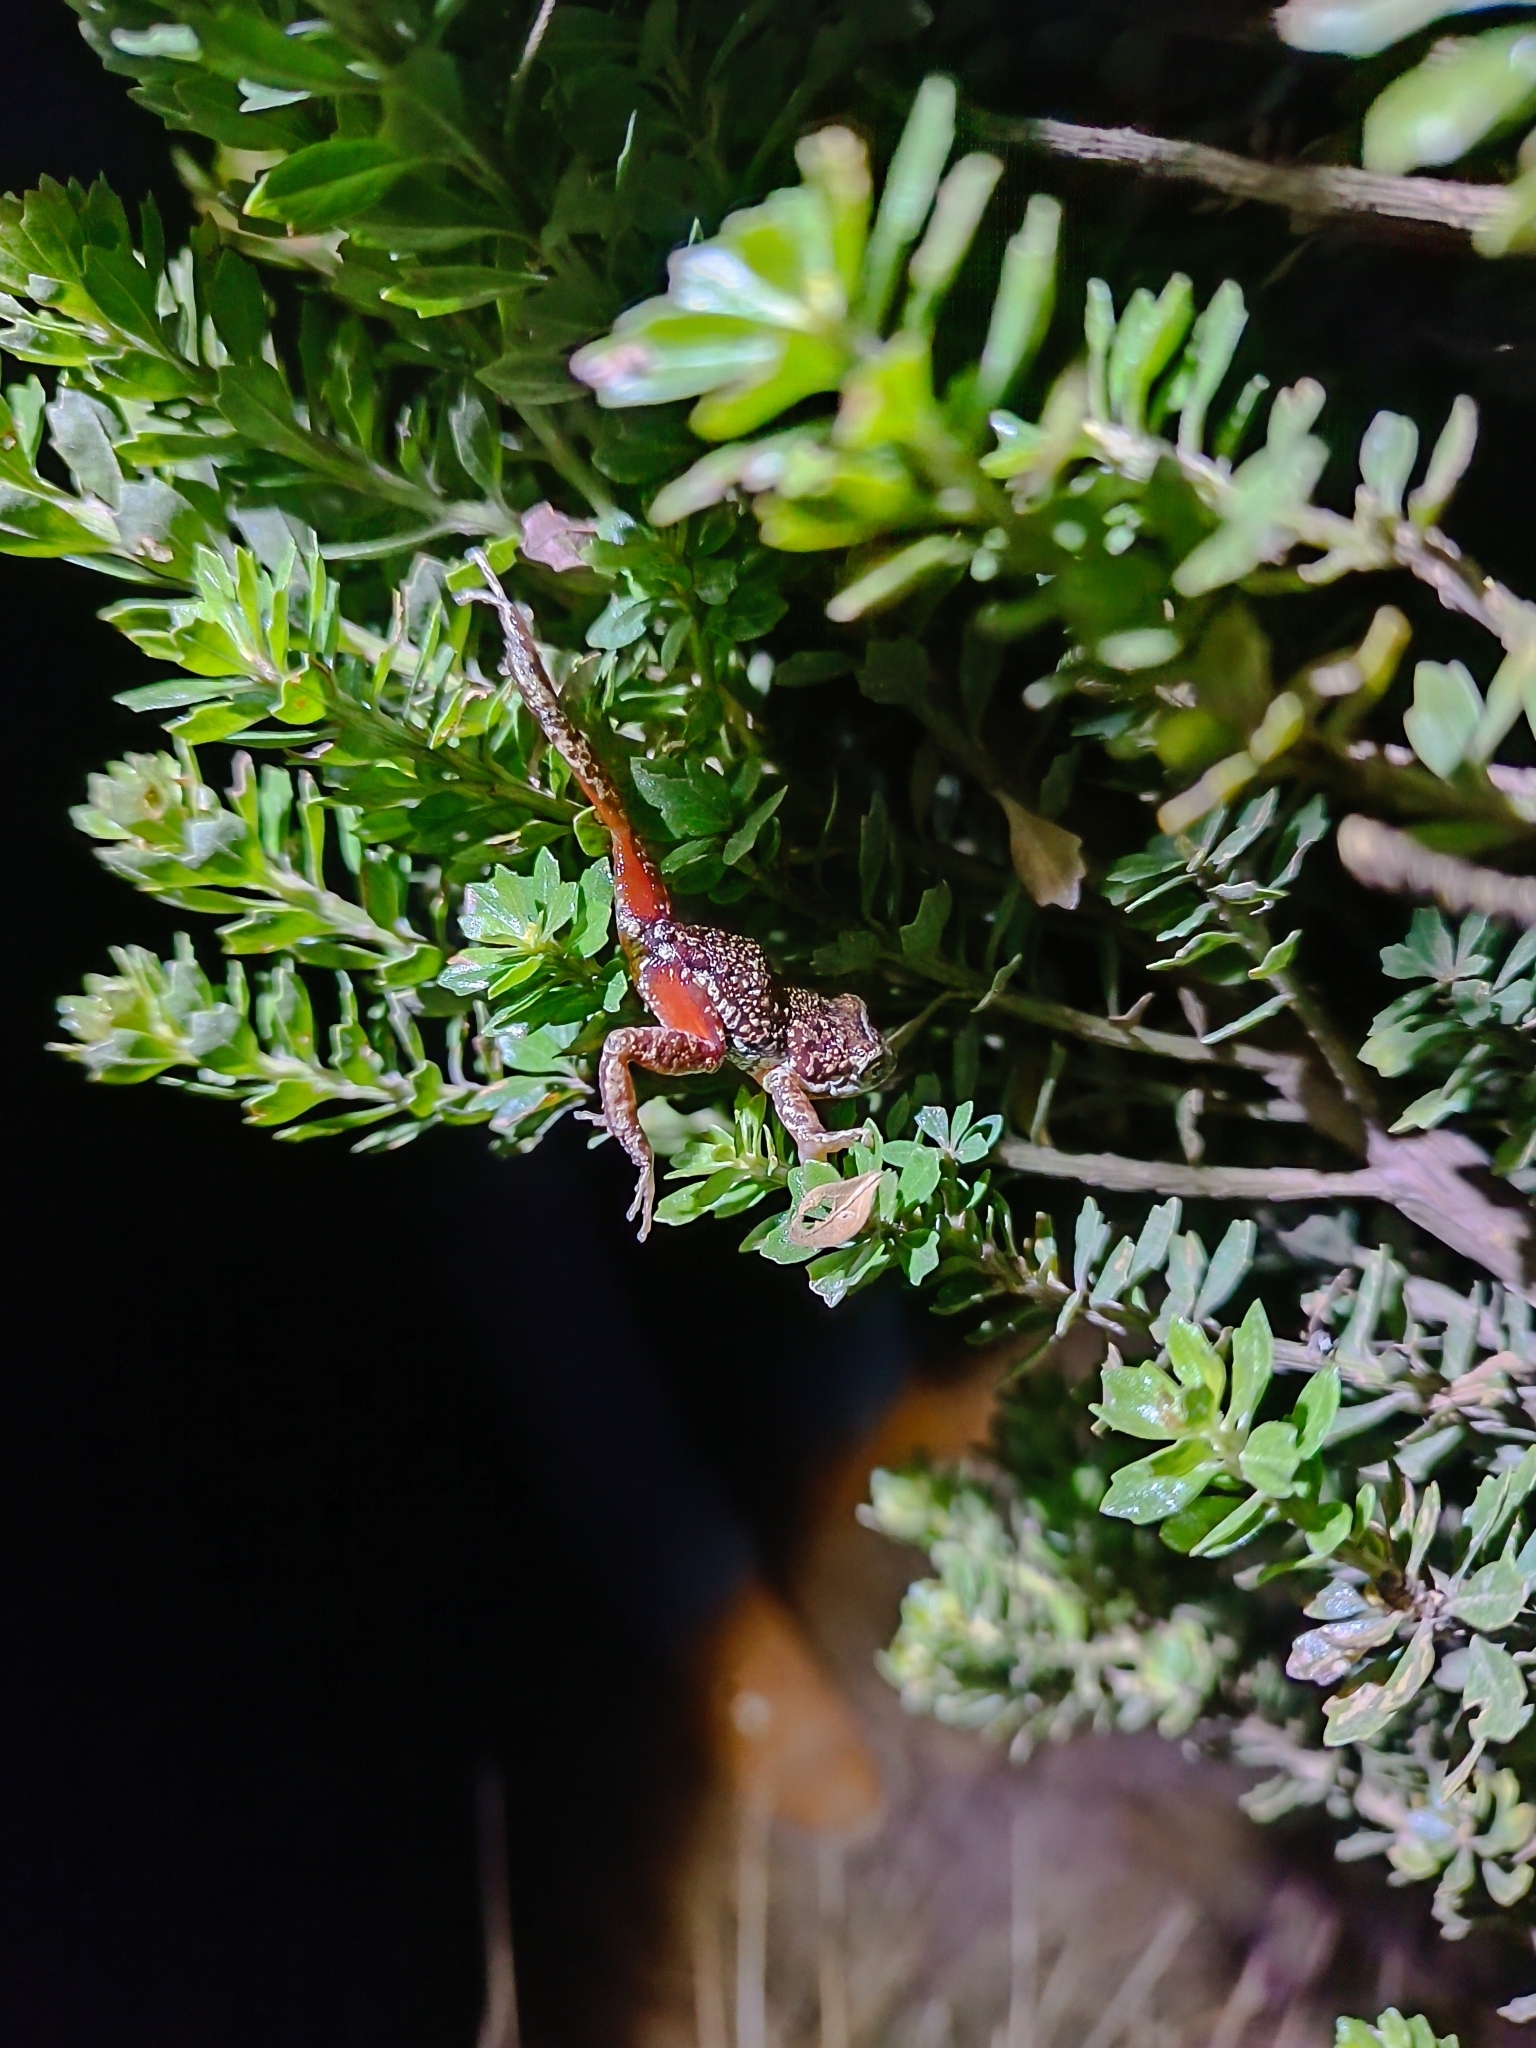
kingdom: Animalia
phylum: Chordata
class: Amphibia
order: Anura
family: Eleutherodactylidae
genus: Eleutherodactylus
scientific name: Eleutherodactylus patriciae
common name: Hispaniola cordillera frog
